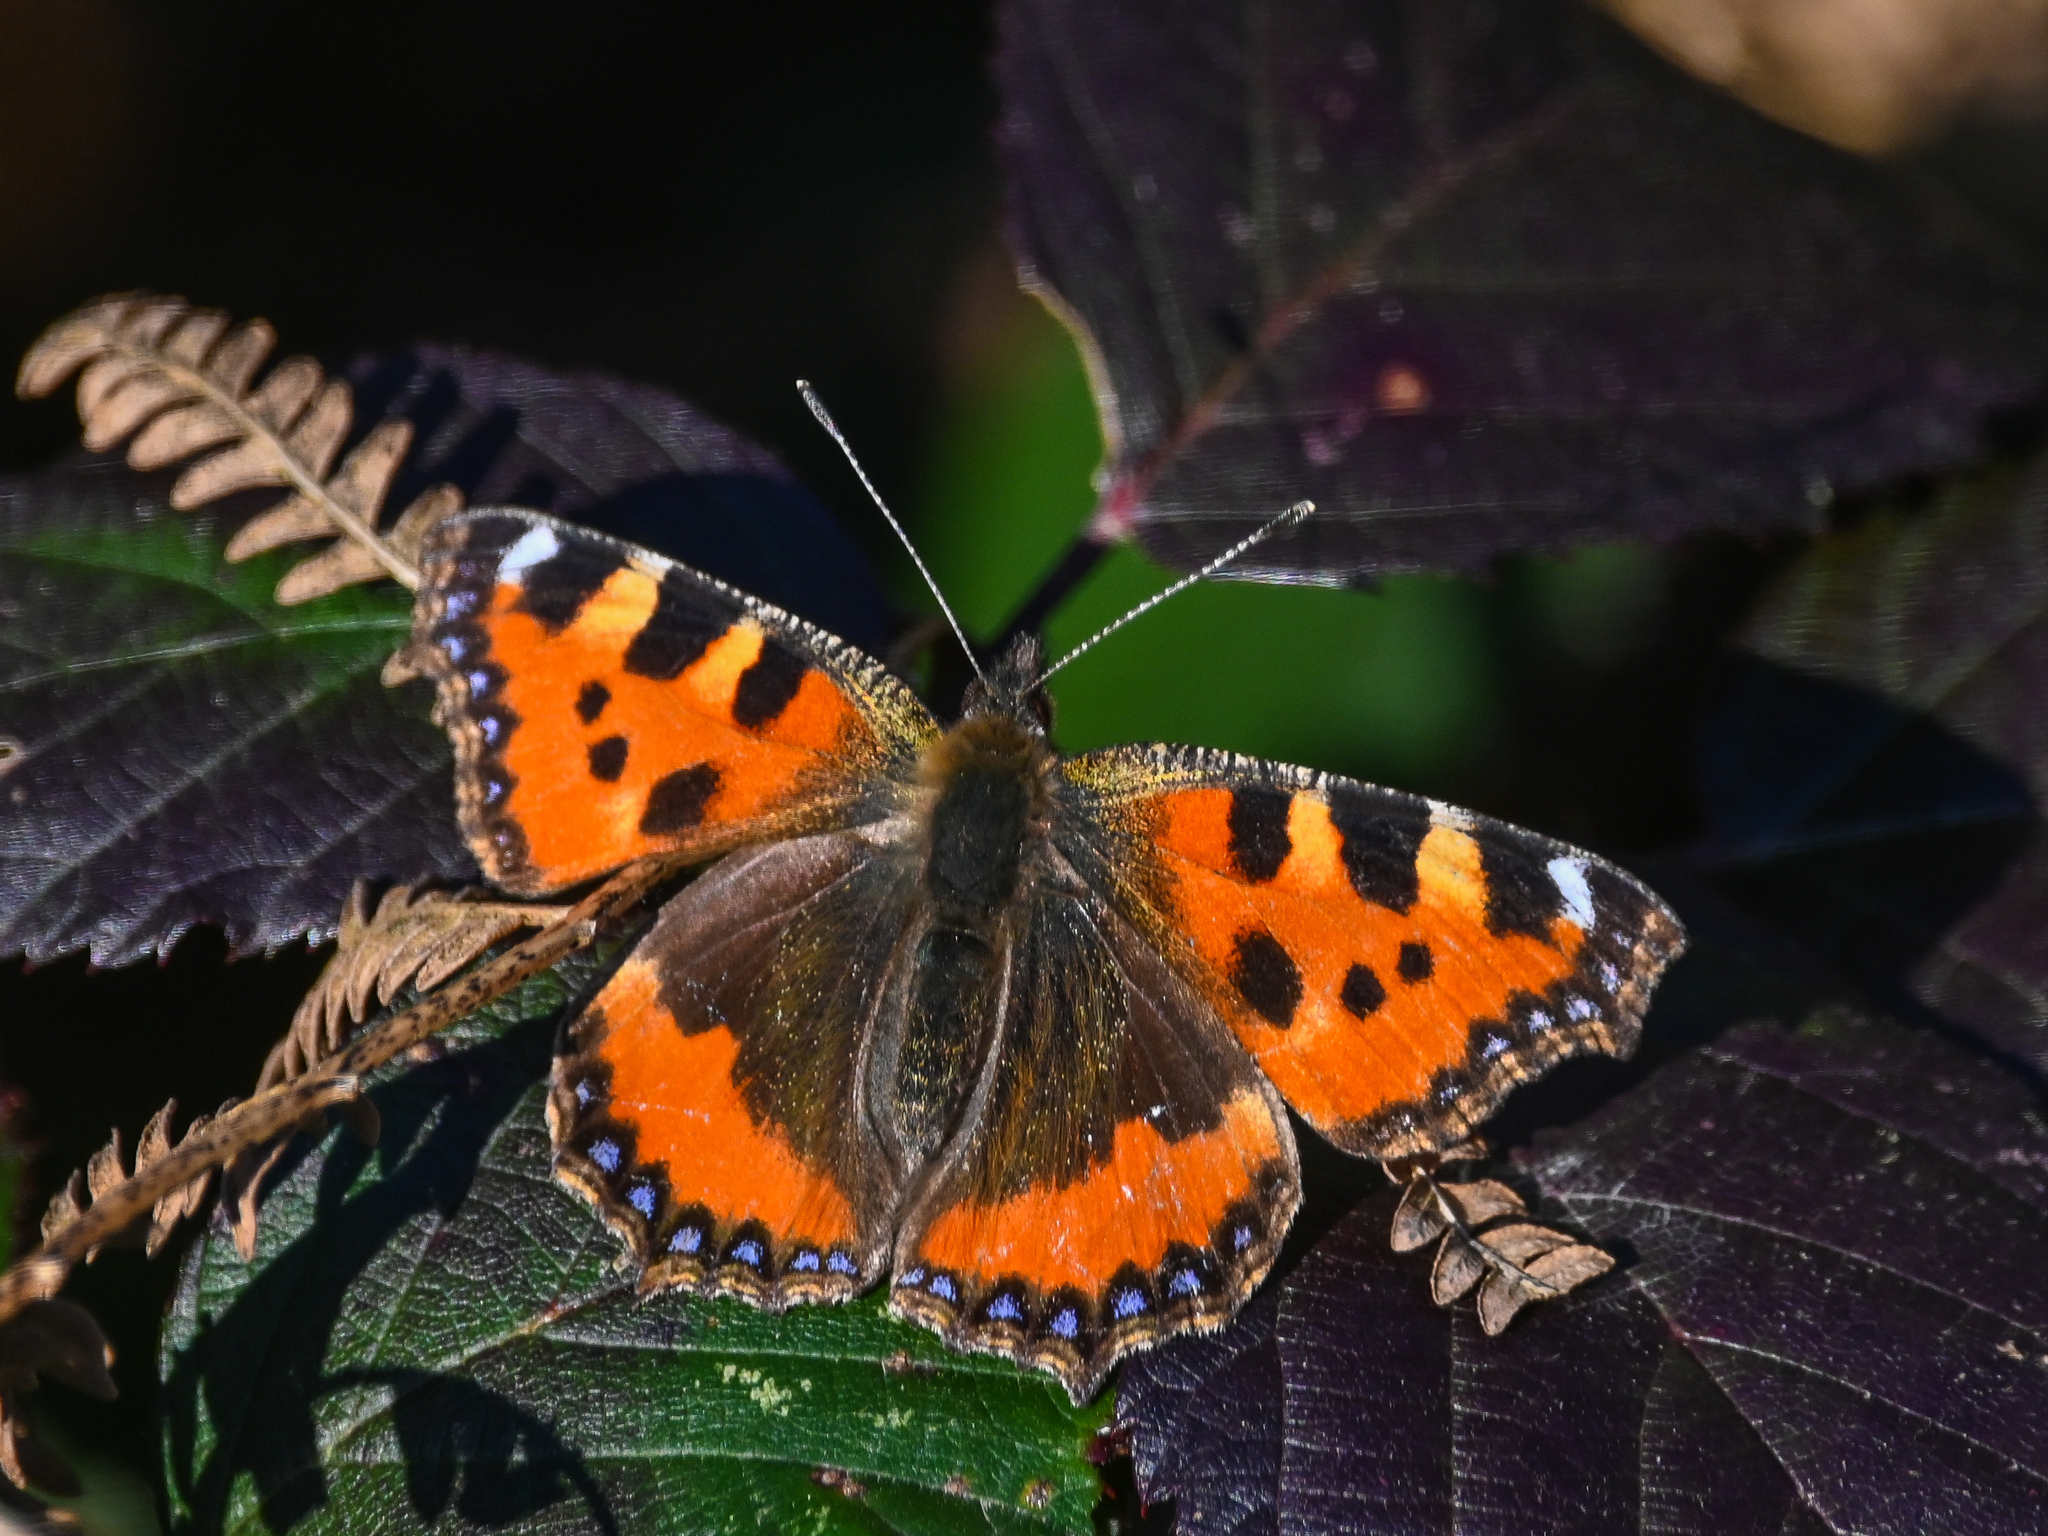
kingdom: Animalia
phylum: Arthropoda
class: Insecta
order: Lepidoptera
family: Nymphalidae
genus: Aglais
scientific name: Aglais urticae
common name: Small tortoiseshell
